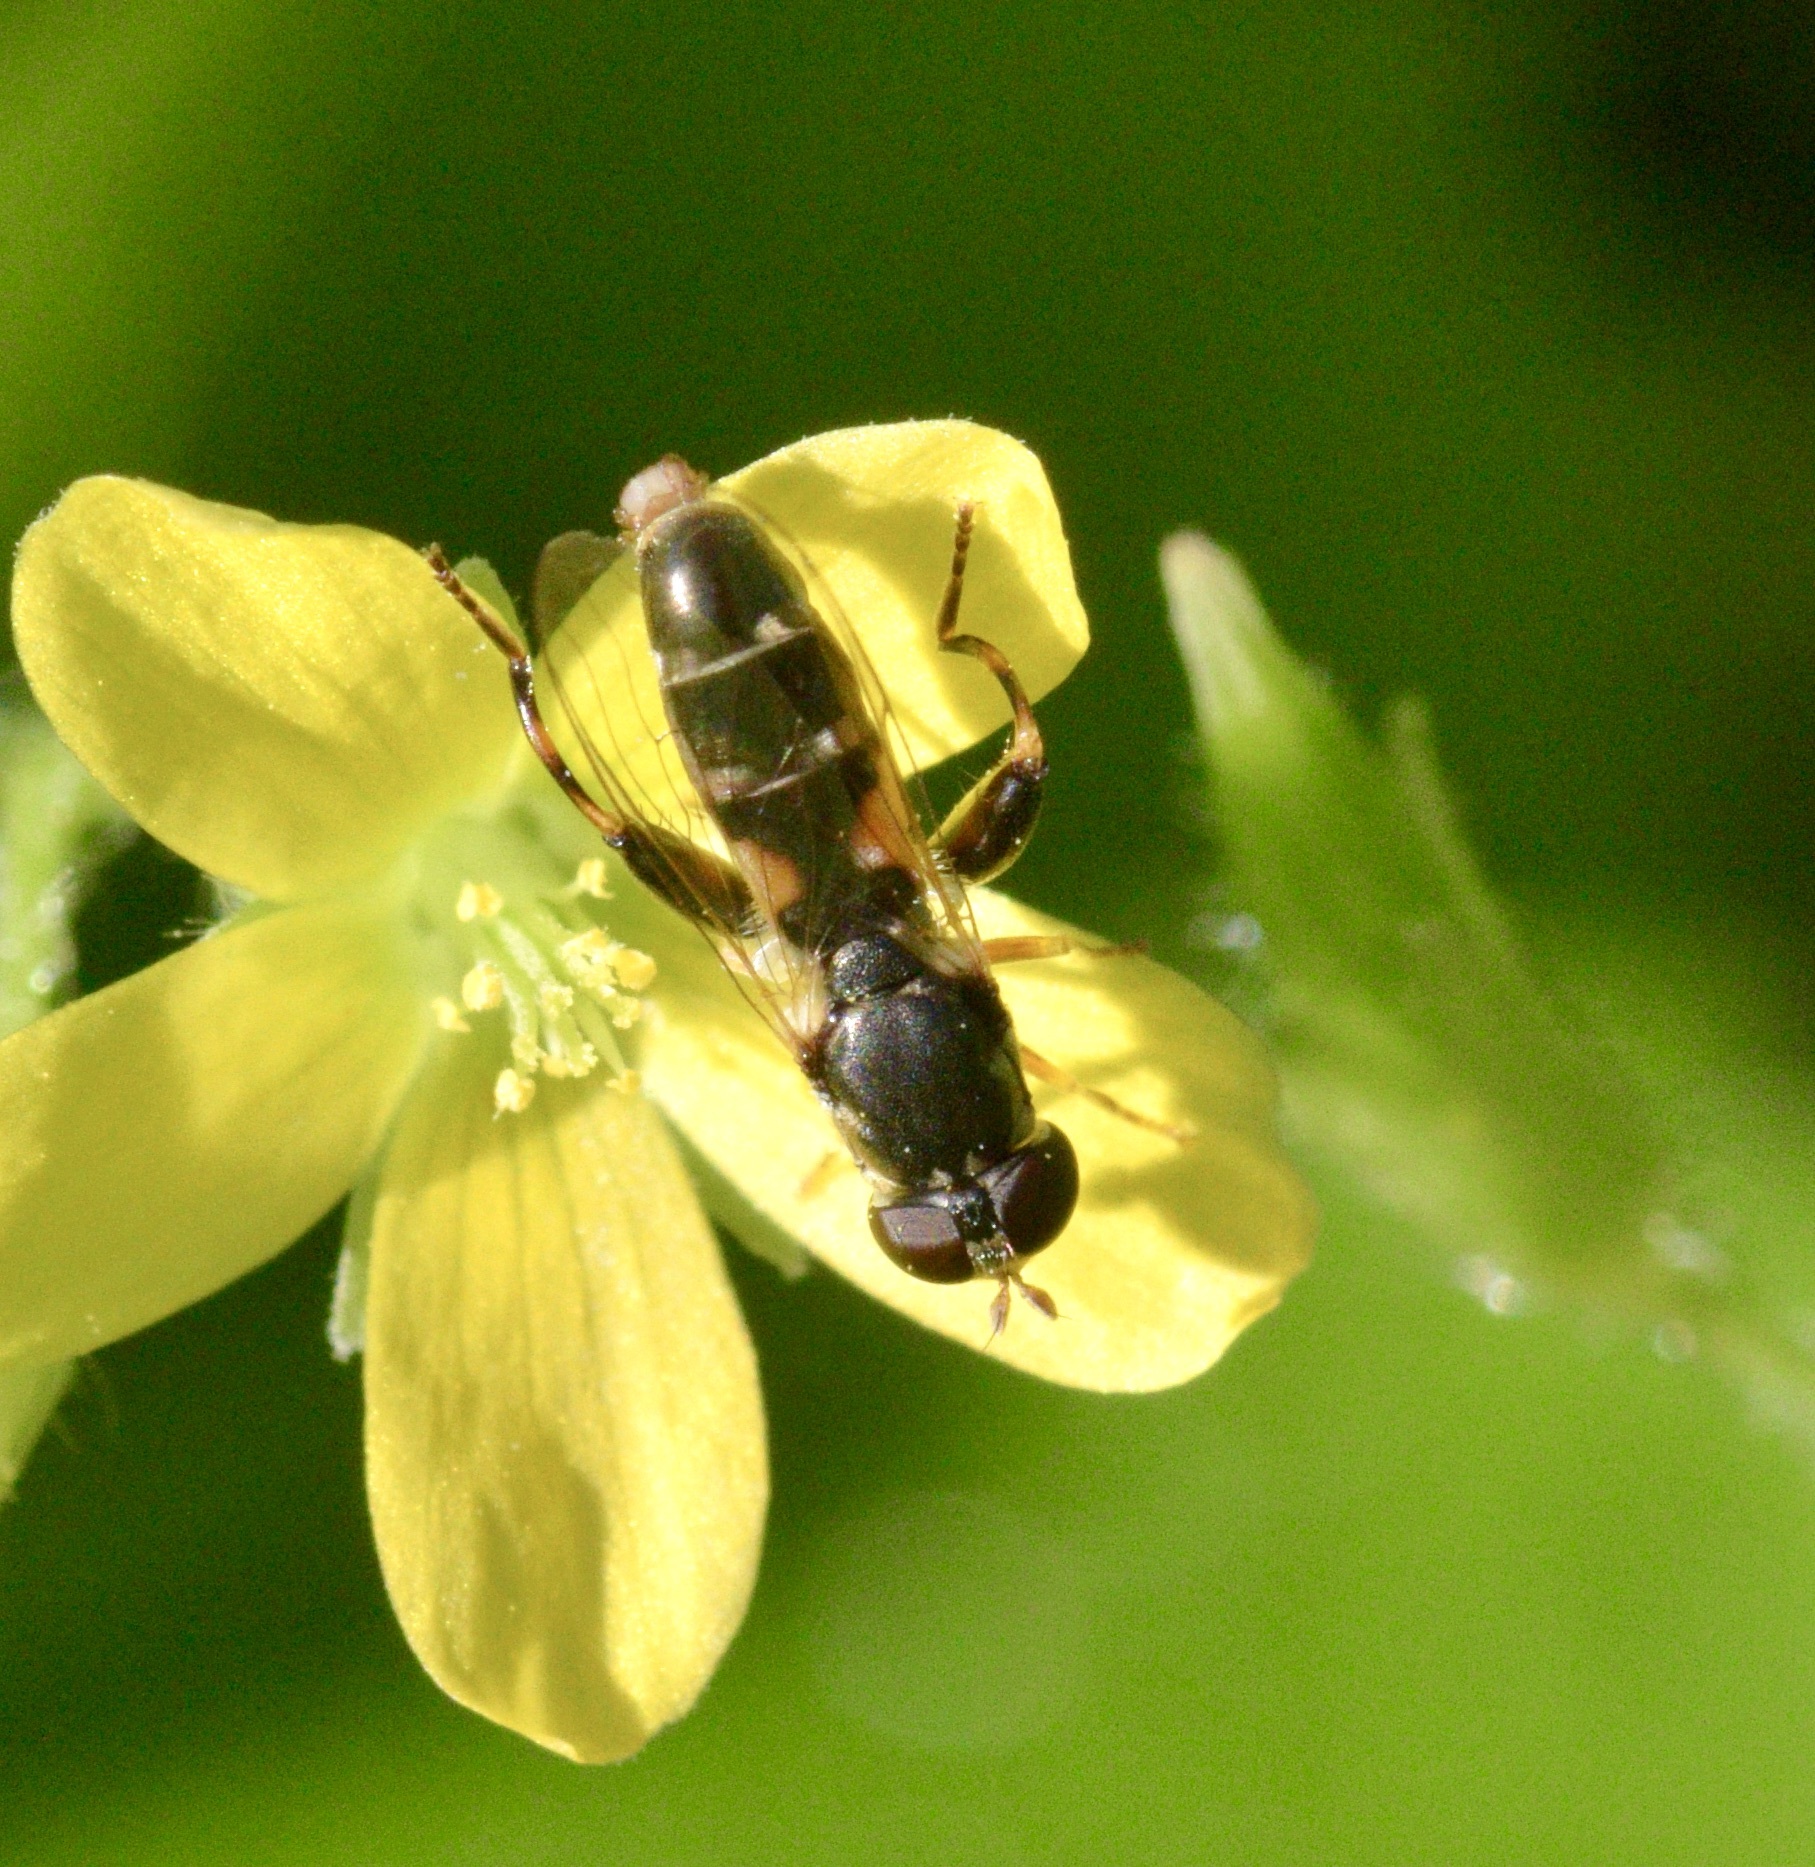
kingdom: Animalia
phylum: Arthropoda
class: Insecta
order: Diptera
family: Syrphidae
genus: Syritta
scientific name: Syritta pipiens
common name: Hover fly
